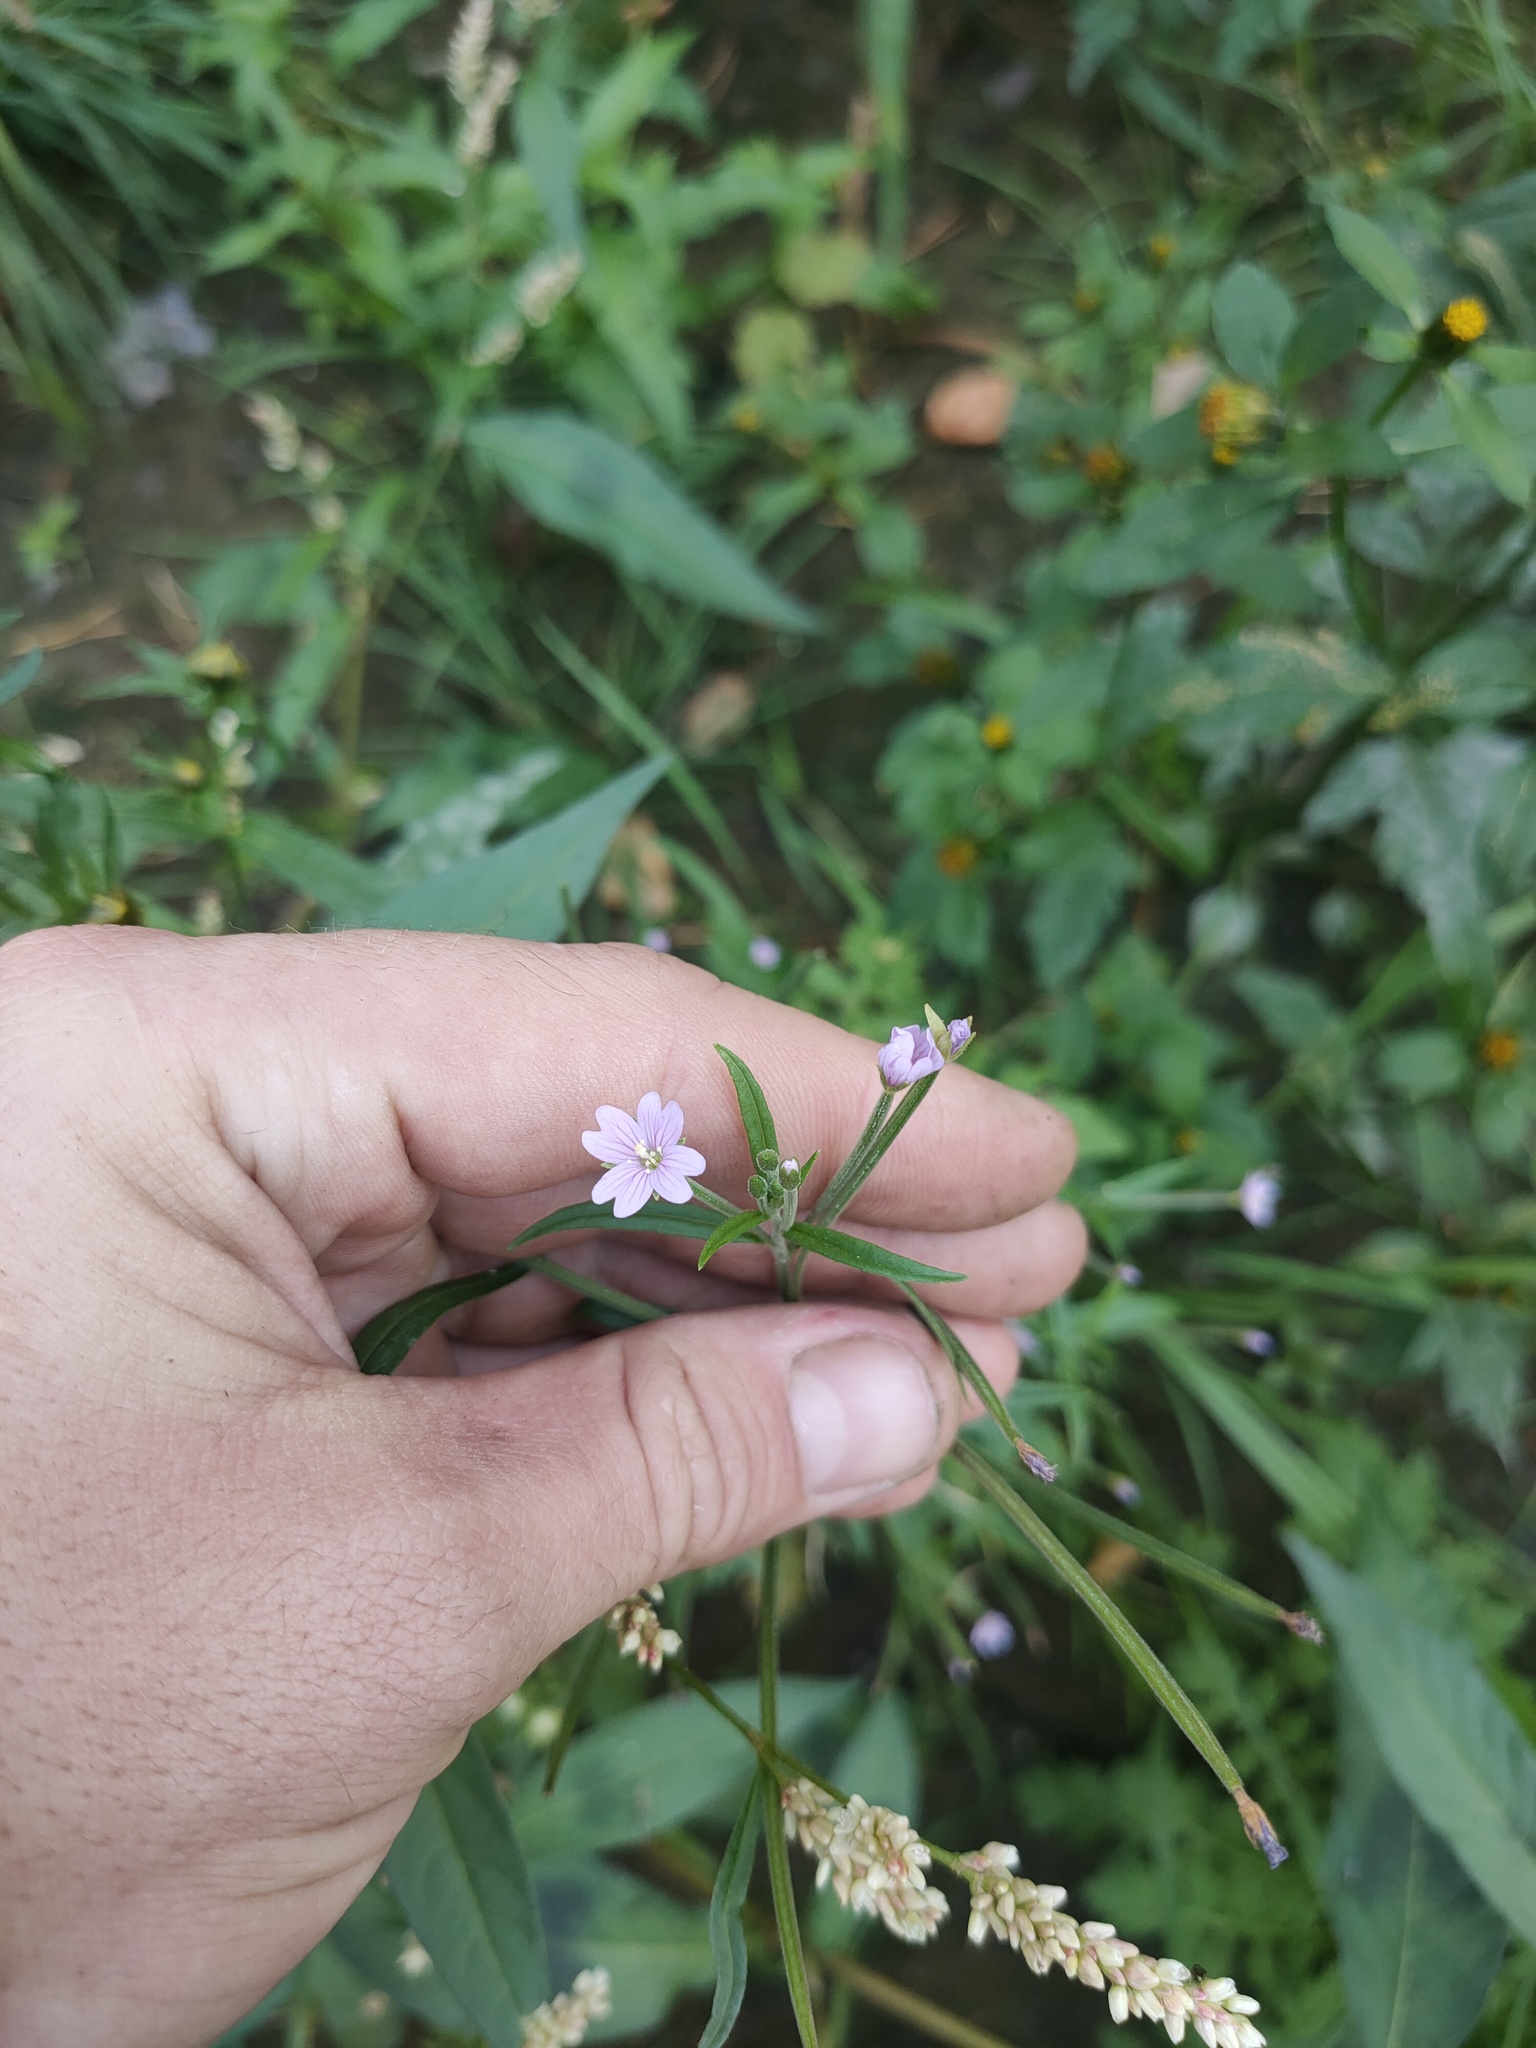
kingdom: Plantae
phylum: Tracheophyta
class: Magnoliopsida
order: Myrtales
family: Onagraceae
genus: Epilobium
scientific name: Epilobium palustre
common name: Marsh willowherb
